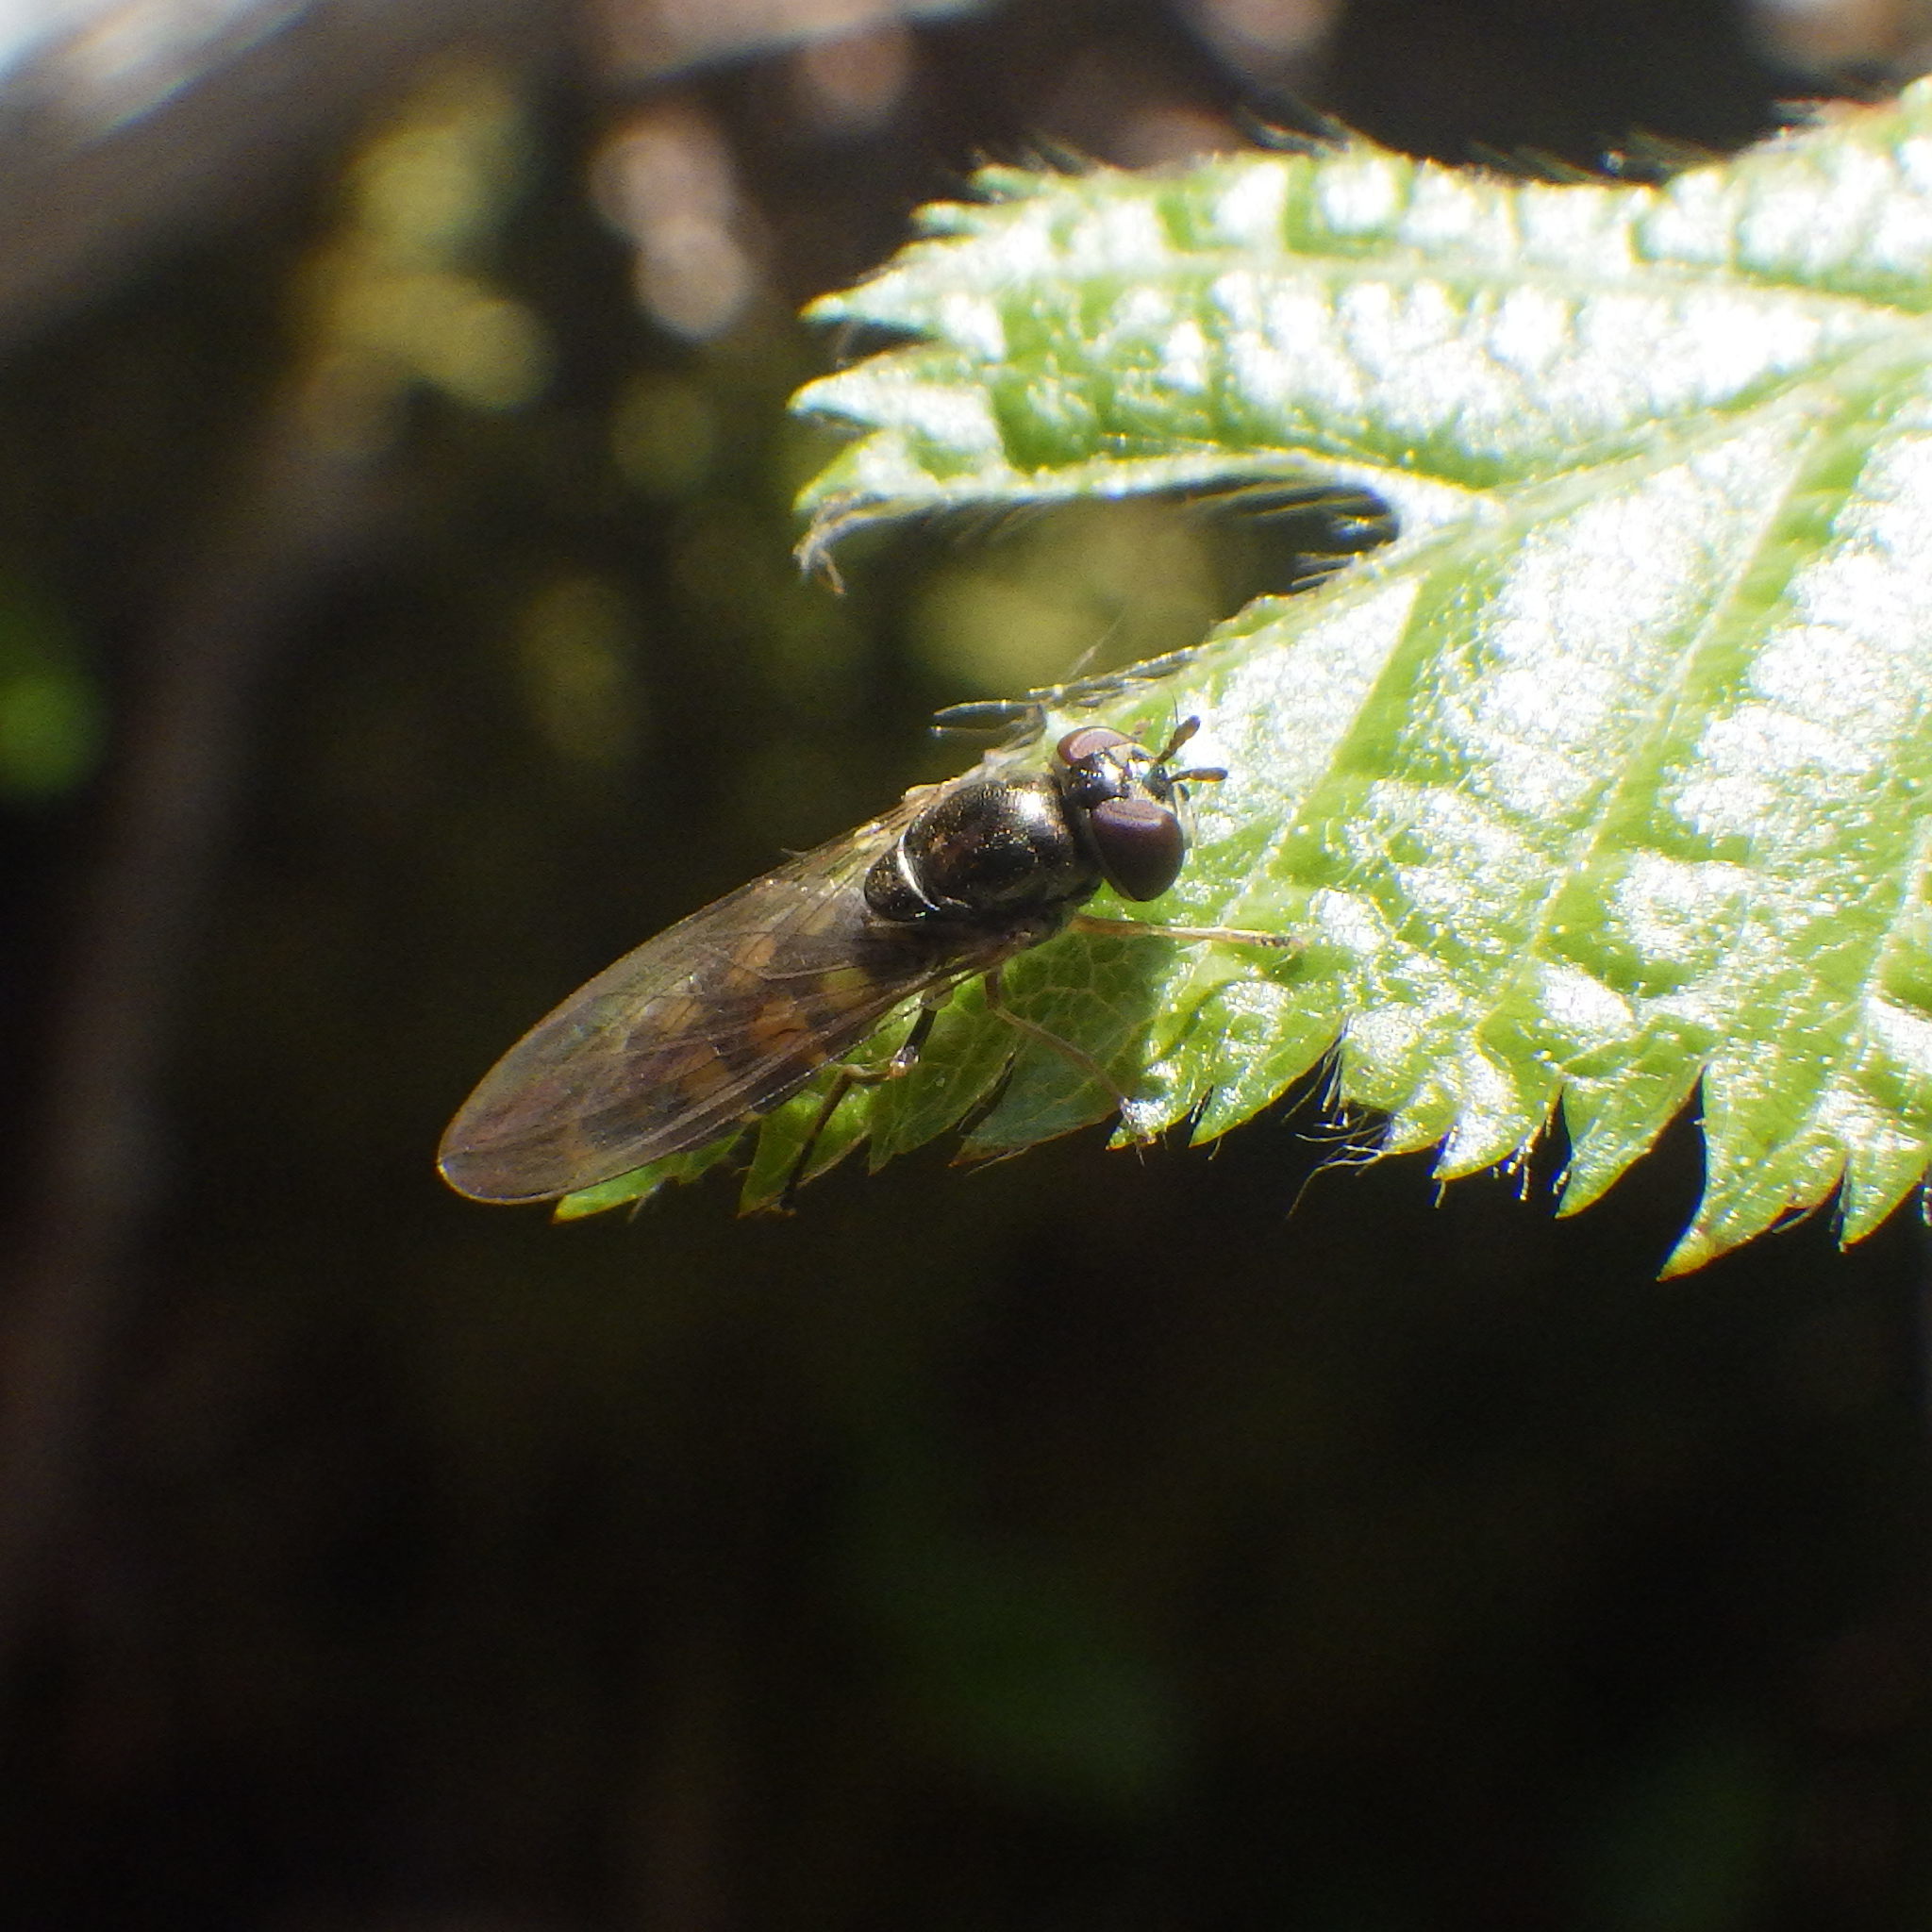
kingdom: Animalia
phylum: Arthropoda
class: Insecta
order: Diptera
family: Syrphidae
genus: Melanostoma
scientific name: Melanostoma mellina
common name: Hover fly
